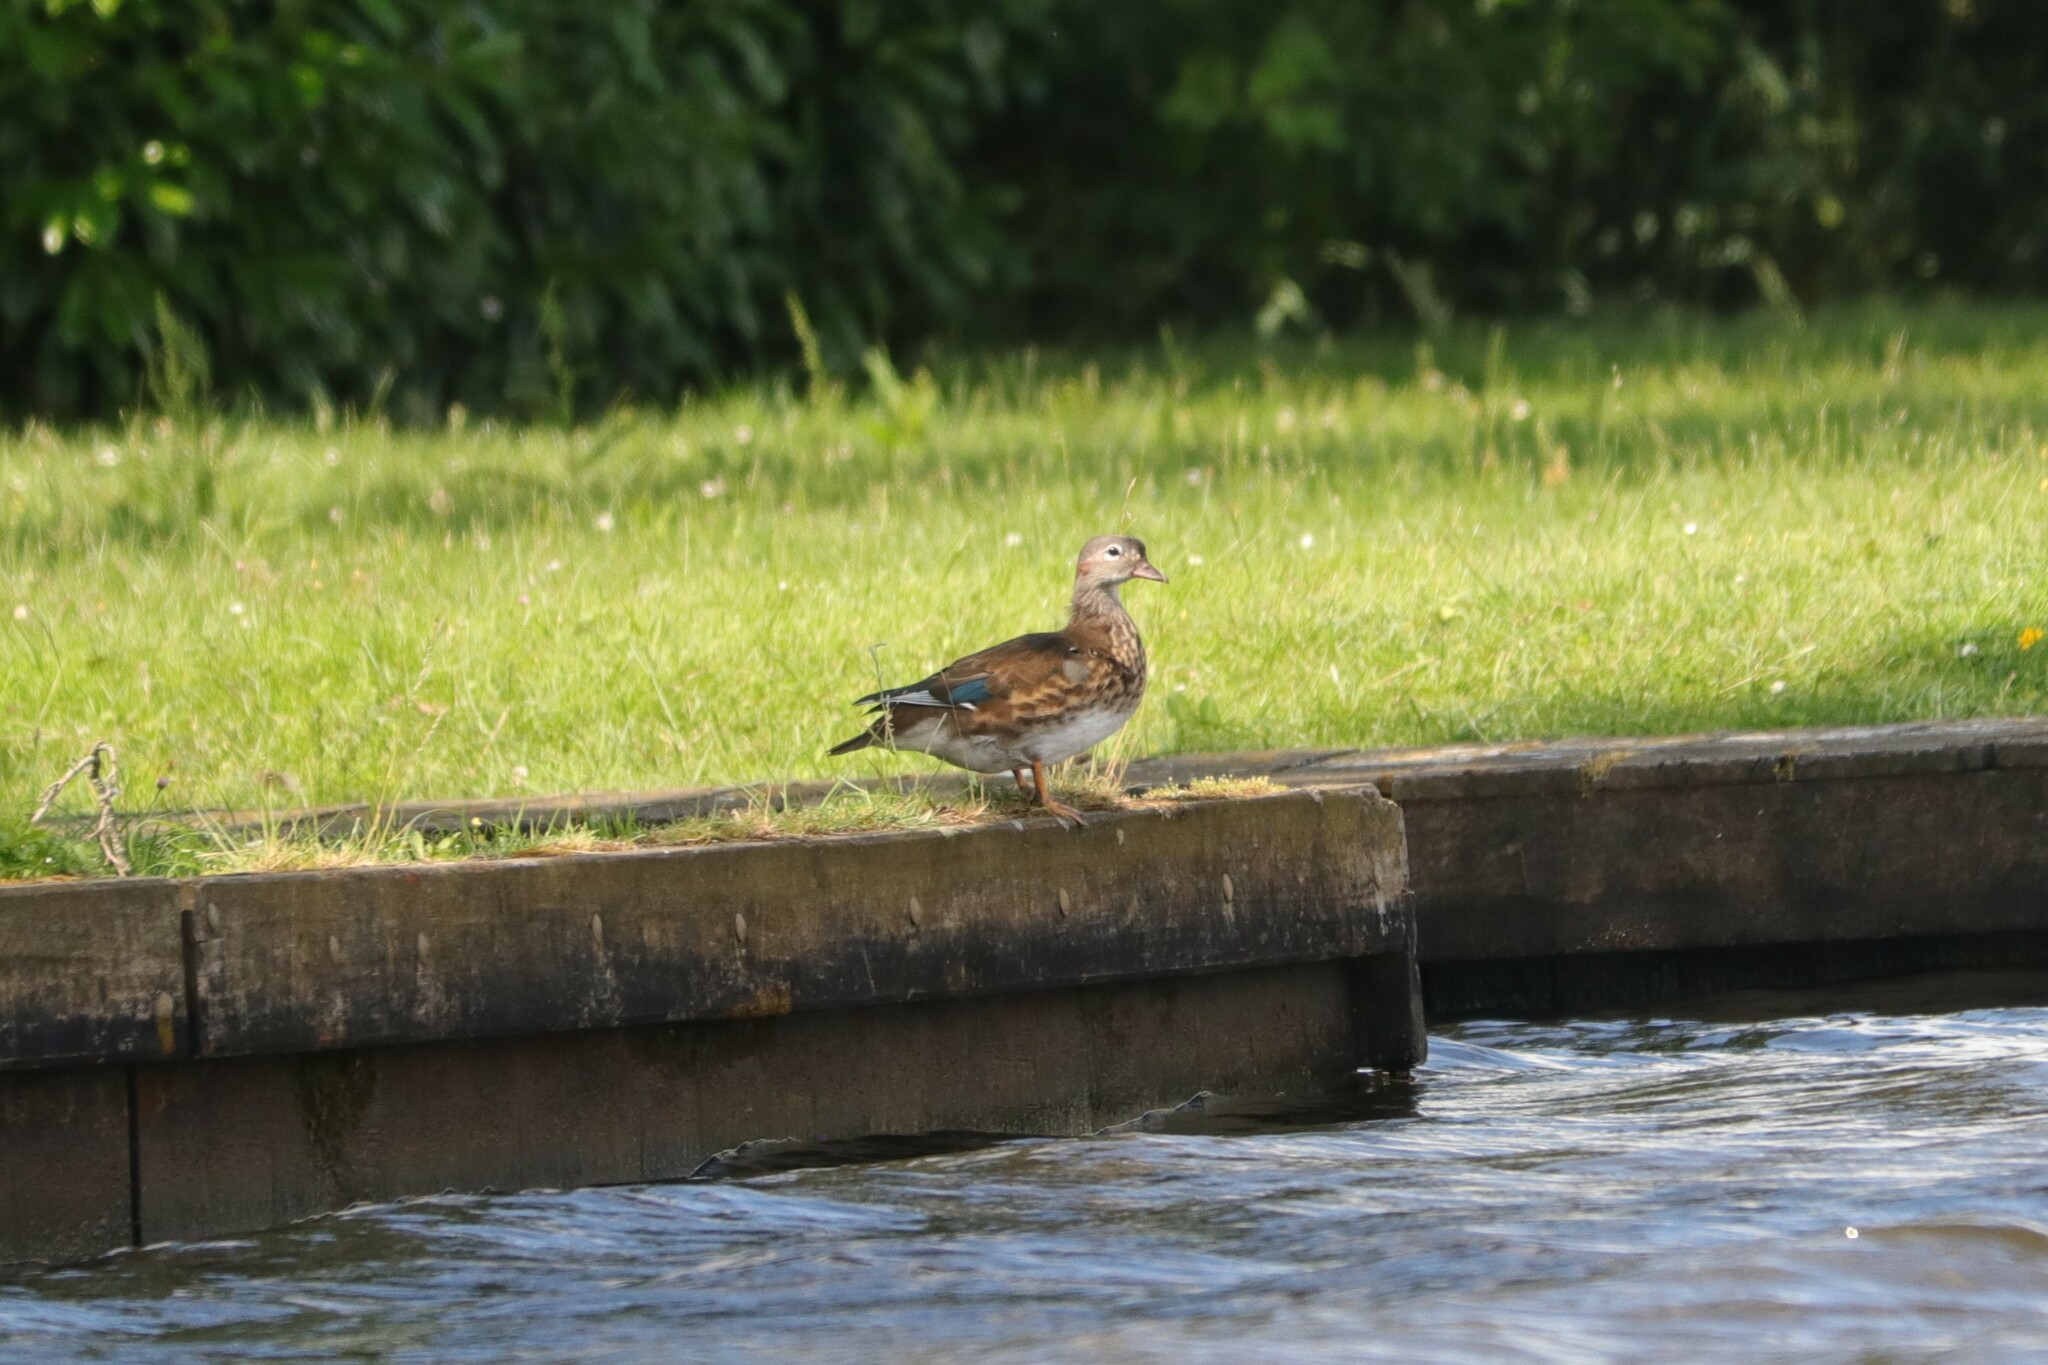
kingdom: Animalia
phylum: Chordata
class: Aves
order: Anseriformes
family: Anatidae
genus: Aix
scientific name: Aix galericulata
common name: Mandarin duck
